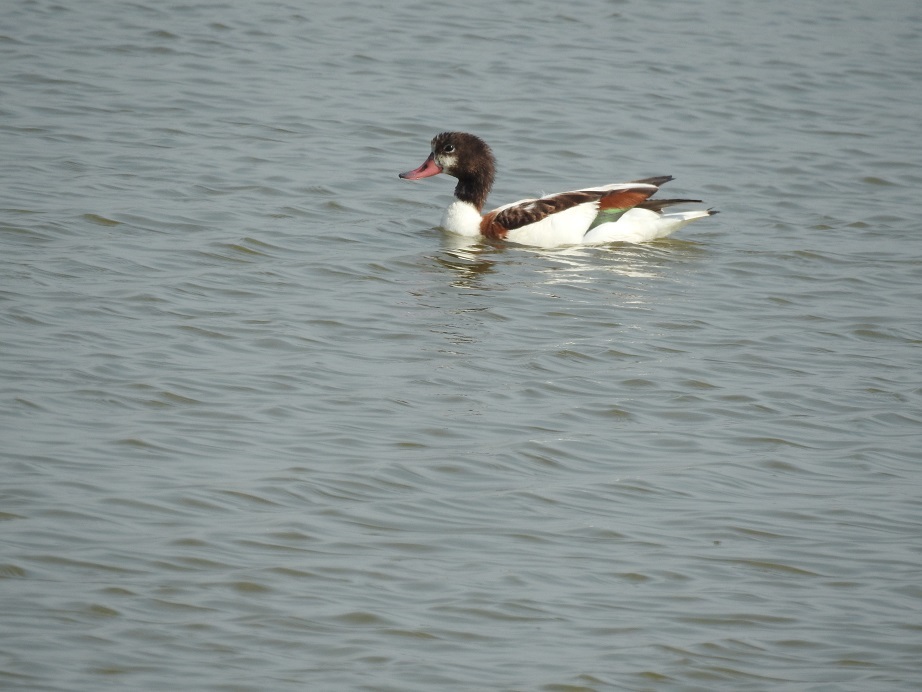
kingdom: Animalia
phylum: Chordata
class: Aves
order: Anseriformes
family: Anatidae
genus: Tadorna
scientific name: Tadorna tadorna
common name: Common shelduck
